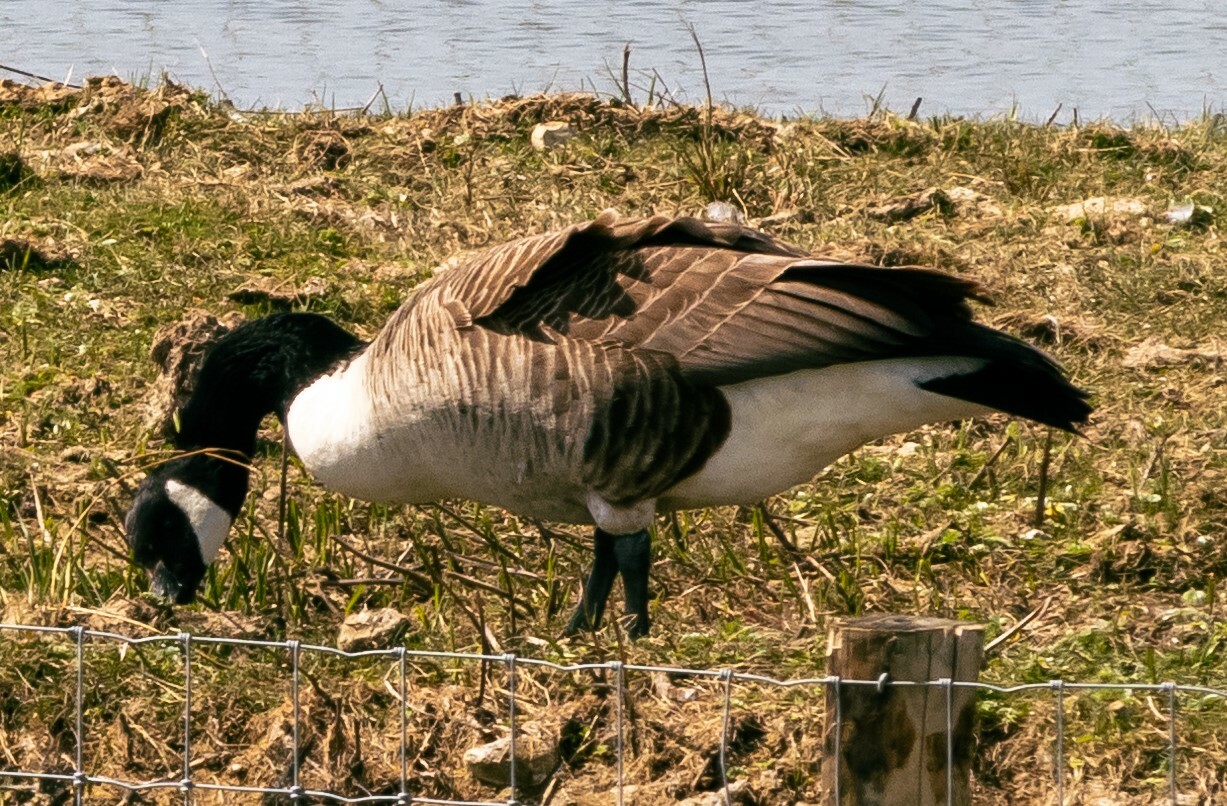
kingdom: Animalia
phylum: Chordata
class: Aves
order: Anseriformes
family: Anatidae
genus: Branta
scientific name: Branta canadensis
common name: Canada goose
